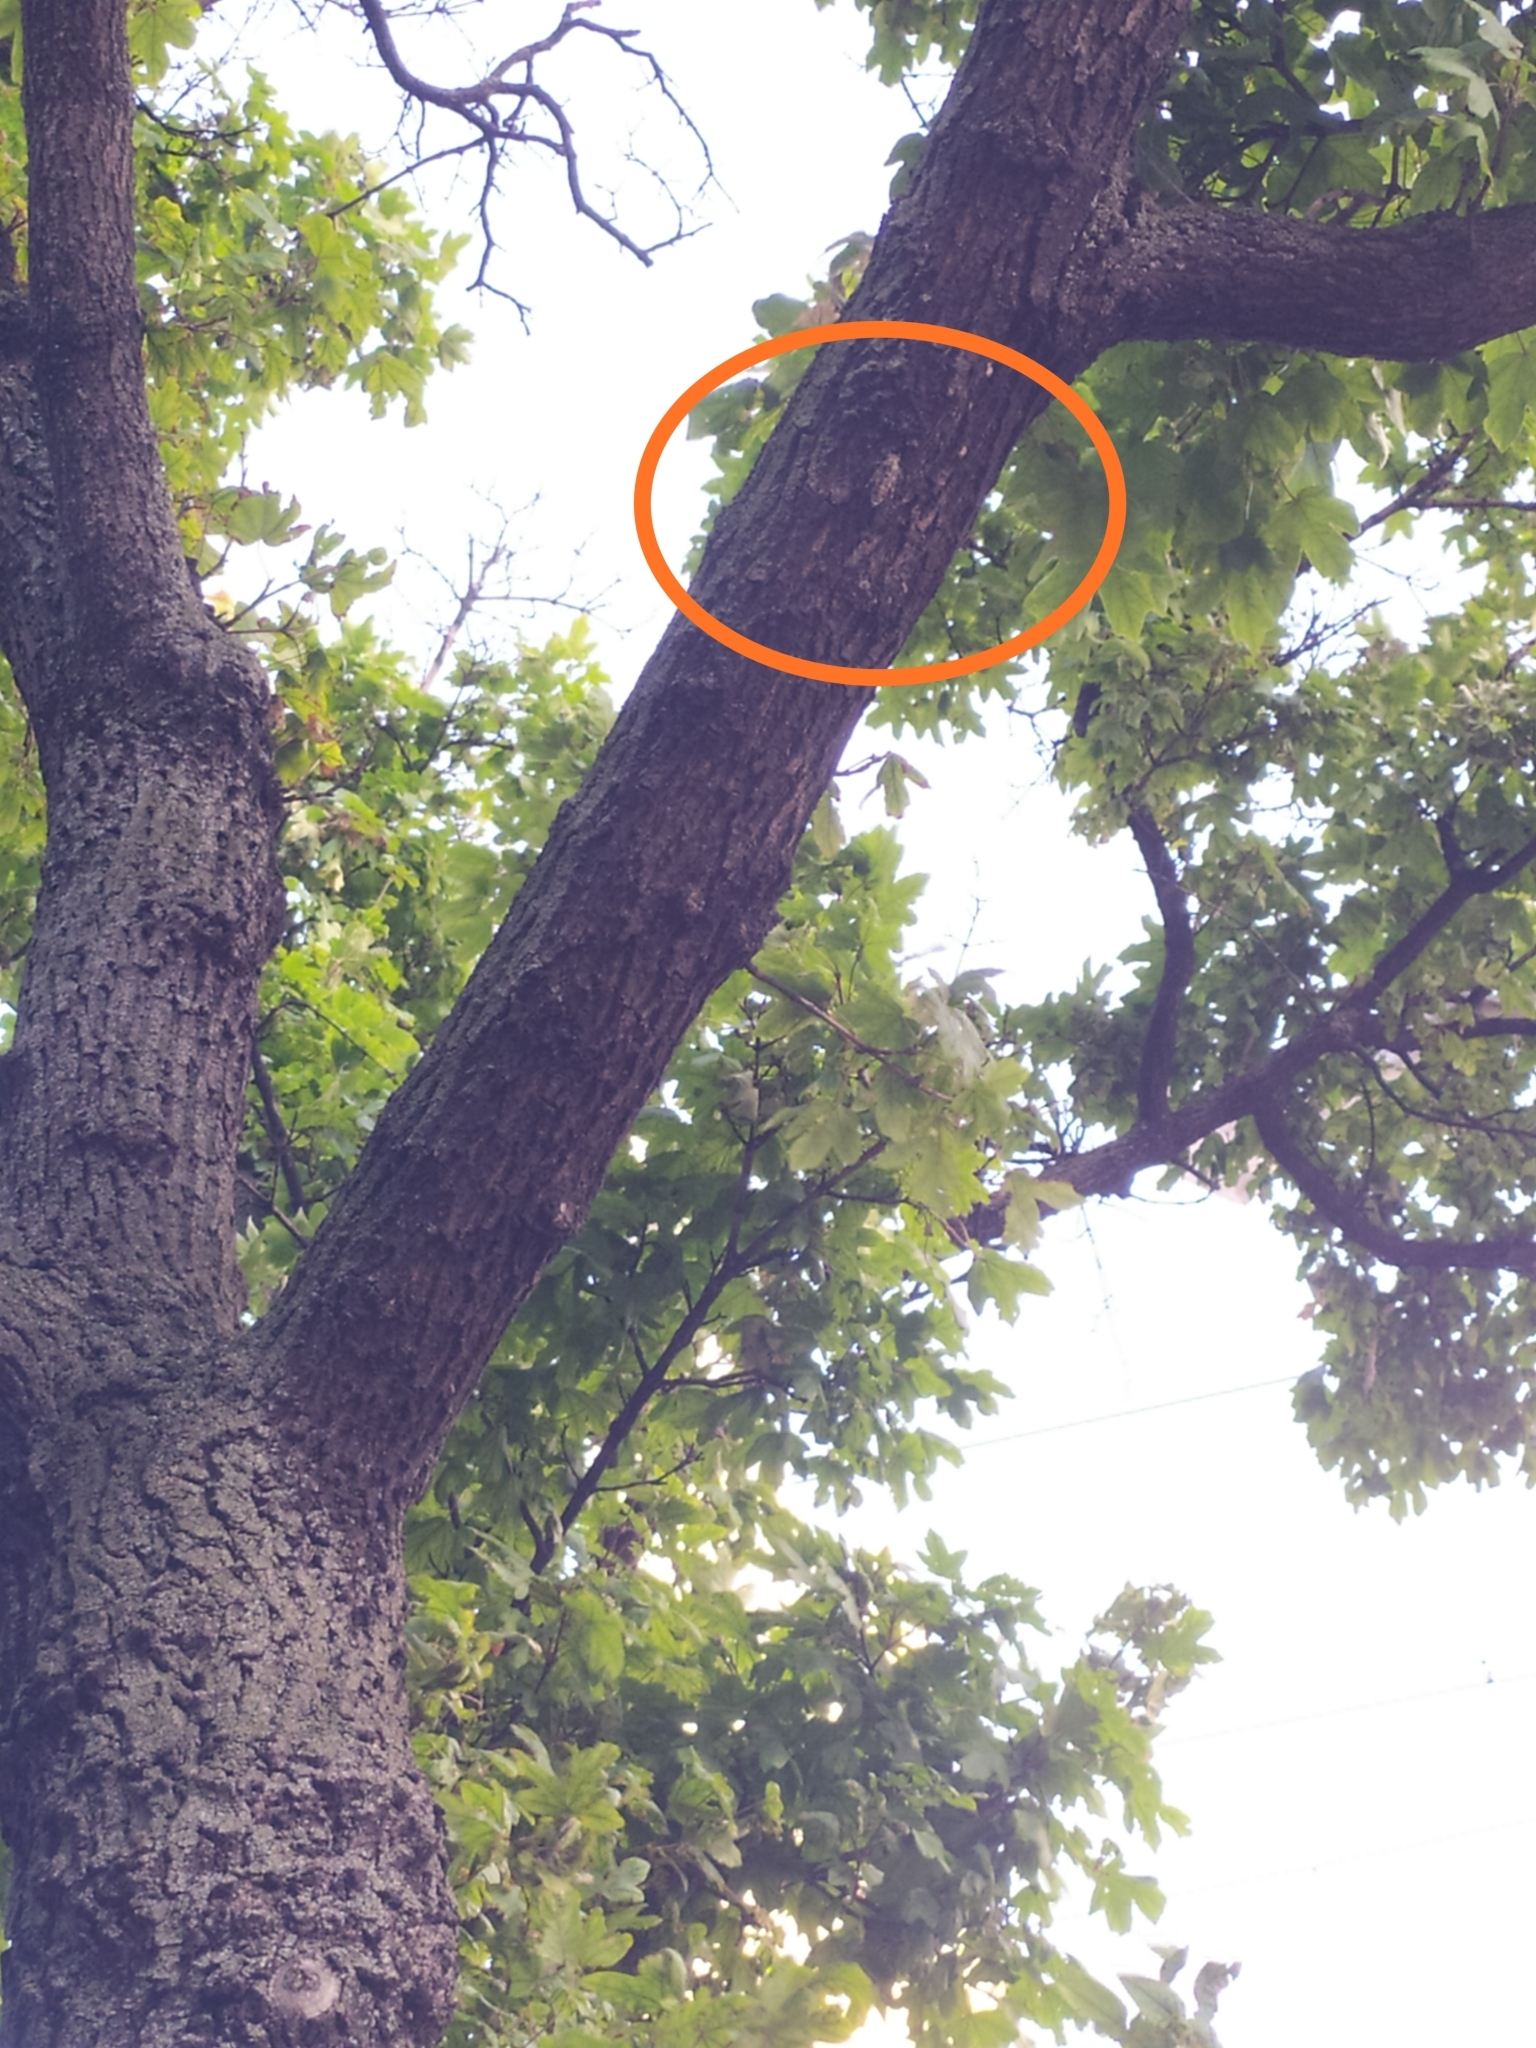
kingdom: Animalia
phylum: Arthropoda
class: Insecta
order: Hemiptera
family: Cicadidae
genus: Cicada
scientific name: Cicada orni
